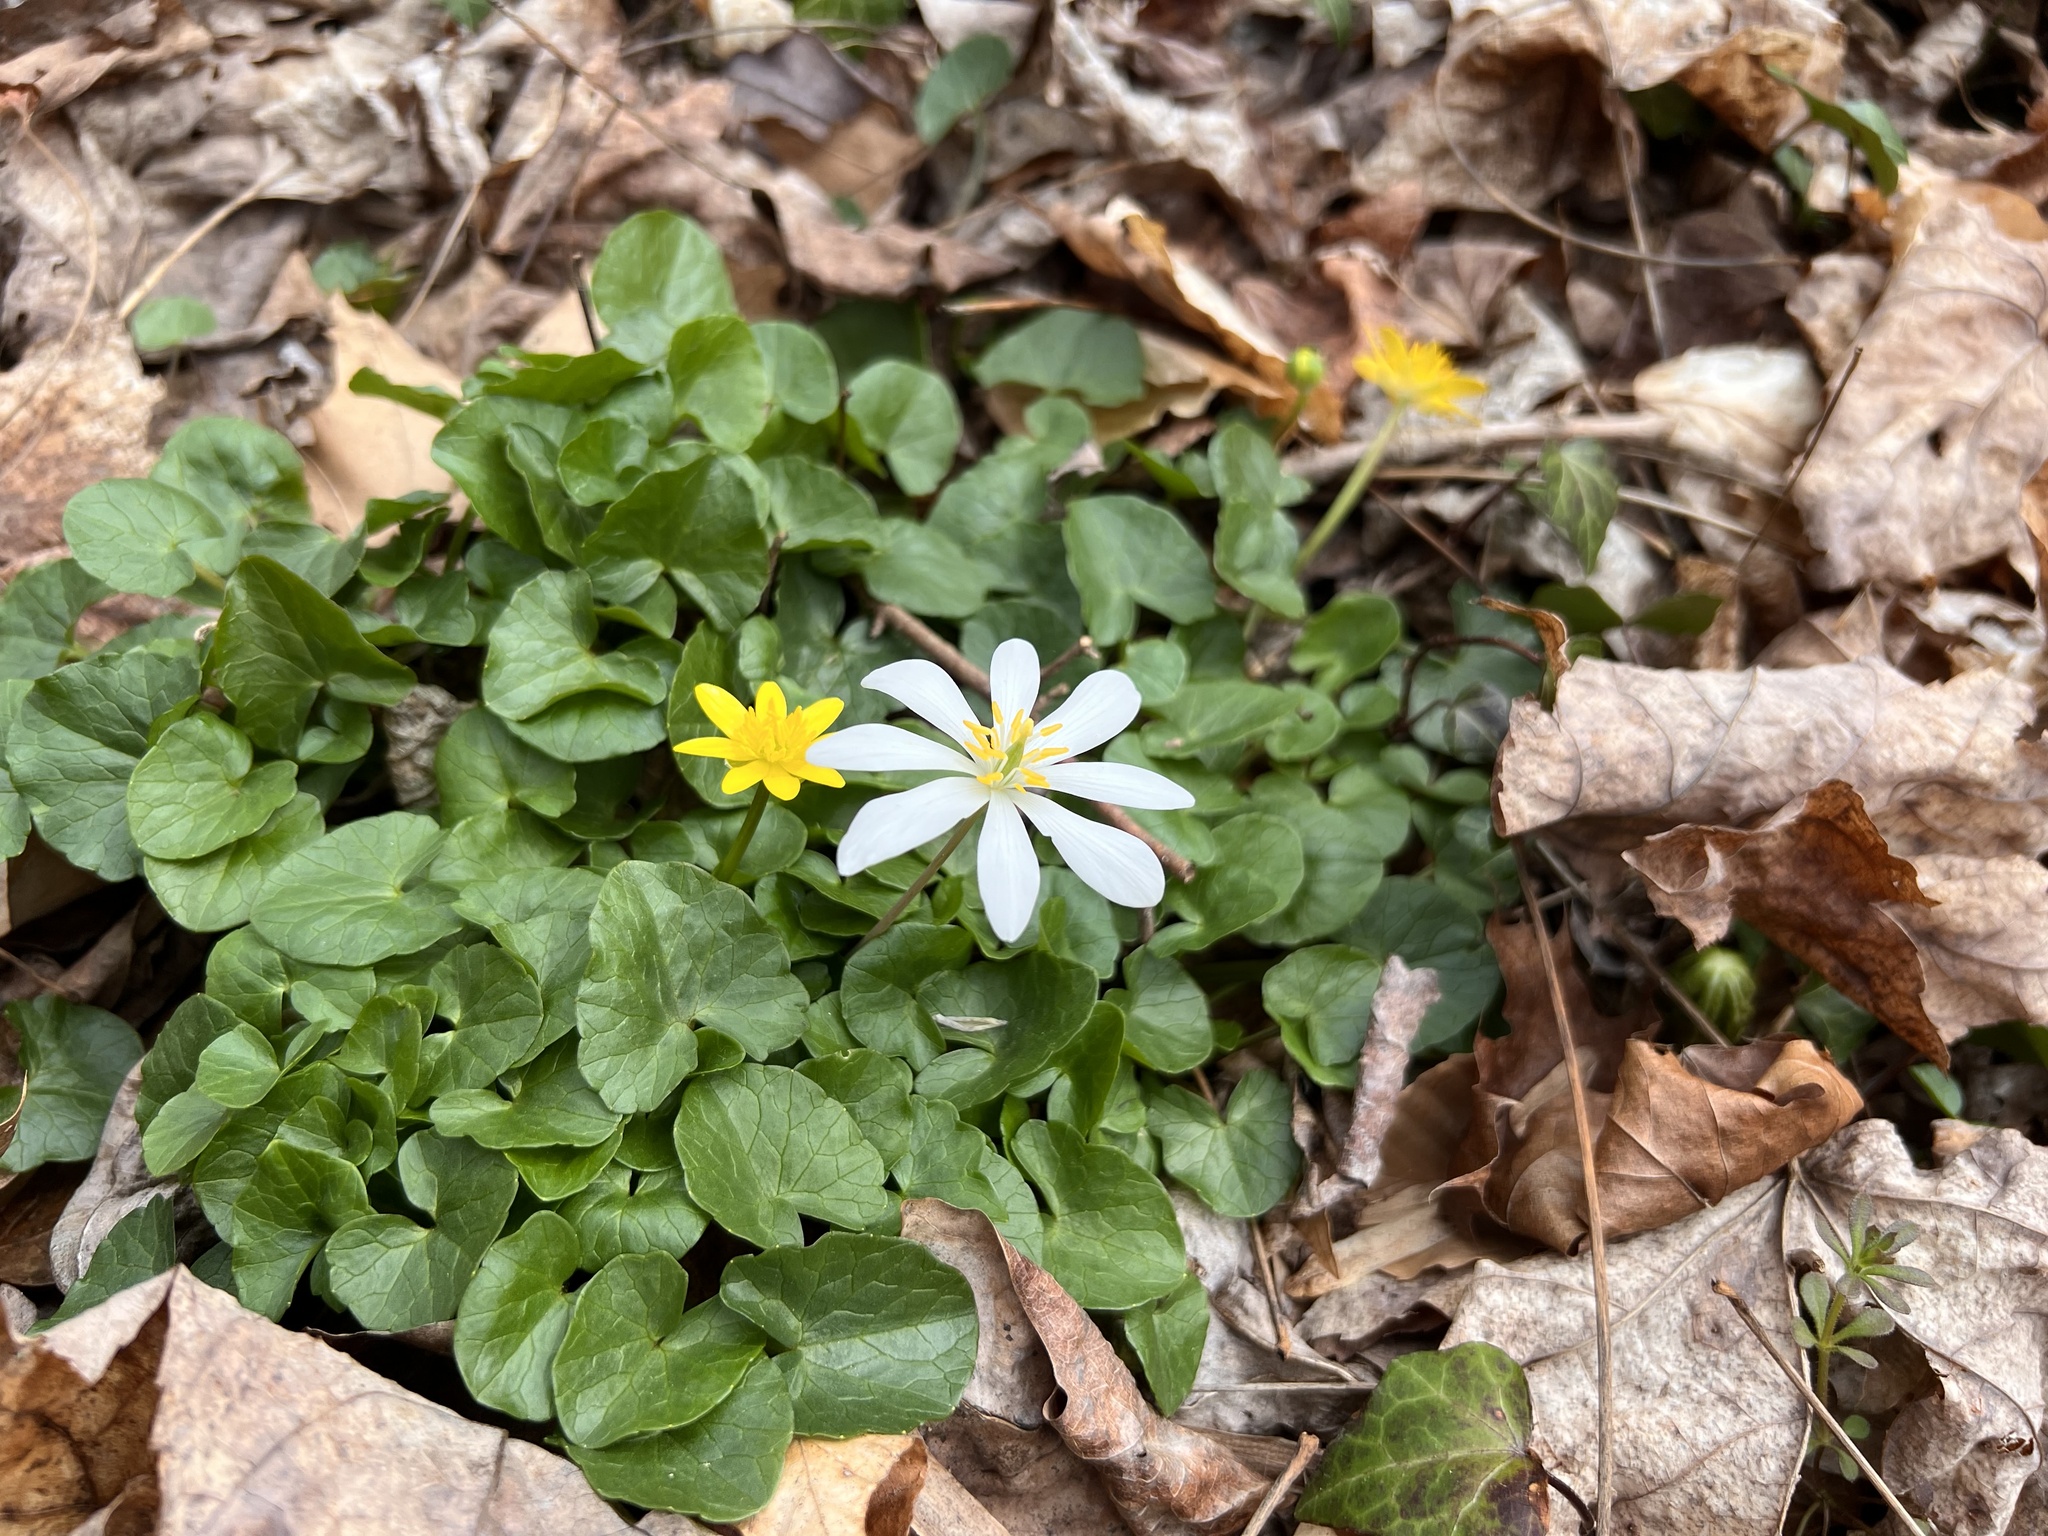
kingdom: Plantae
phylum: Tracheophyta
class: Magnoliopsida
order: Ranunculales
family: Papaveraceae
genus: Sanguinaria
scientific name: Sanguinaria canadensis
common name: Bloodroot
